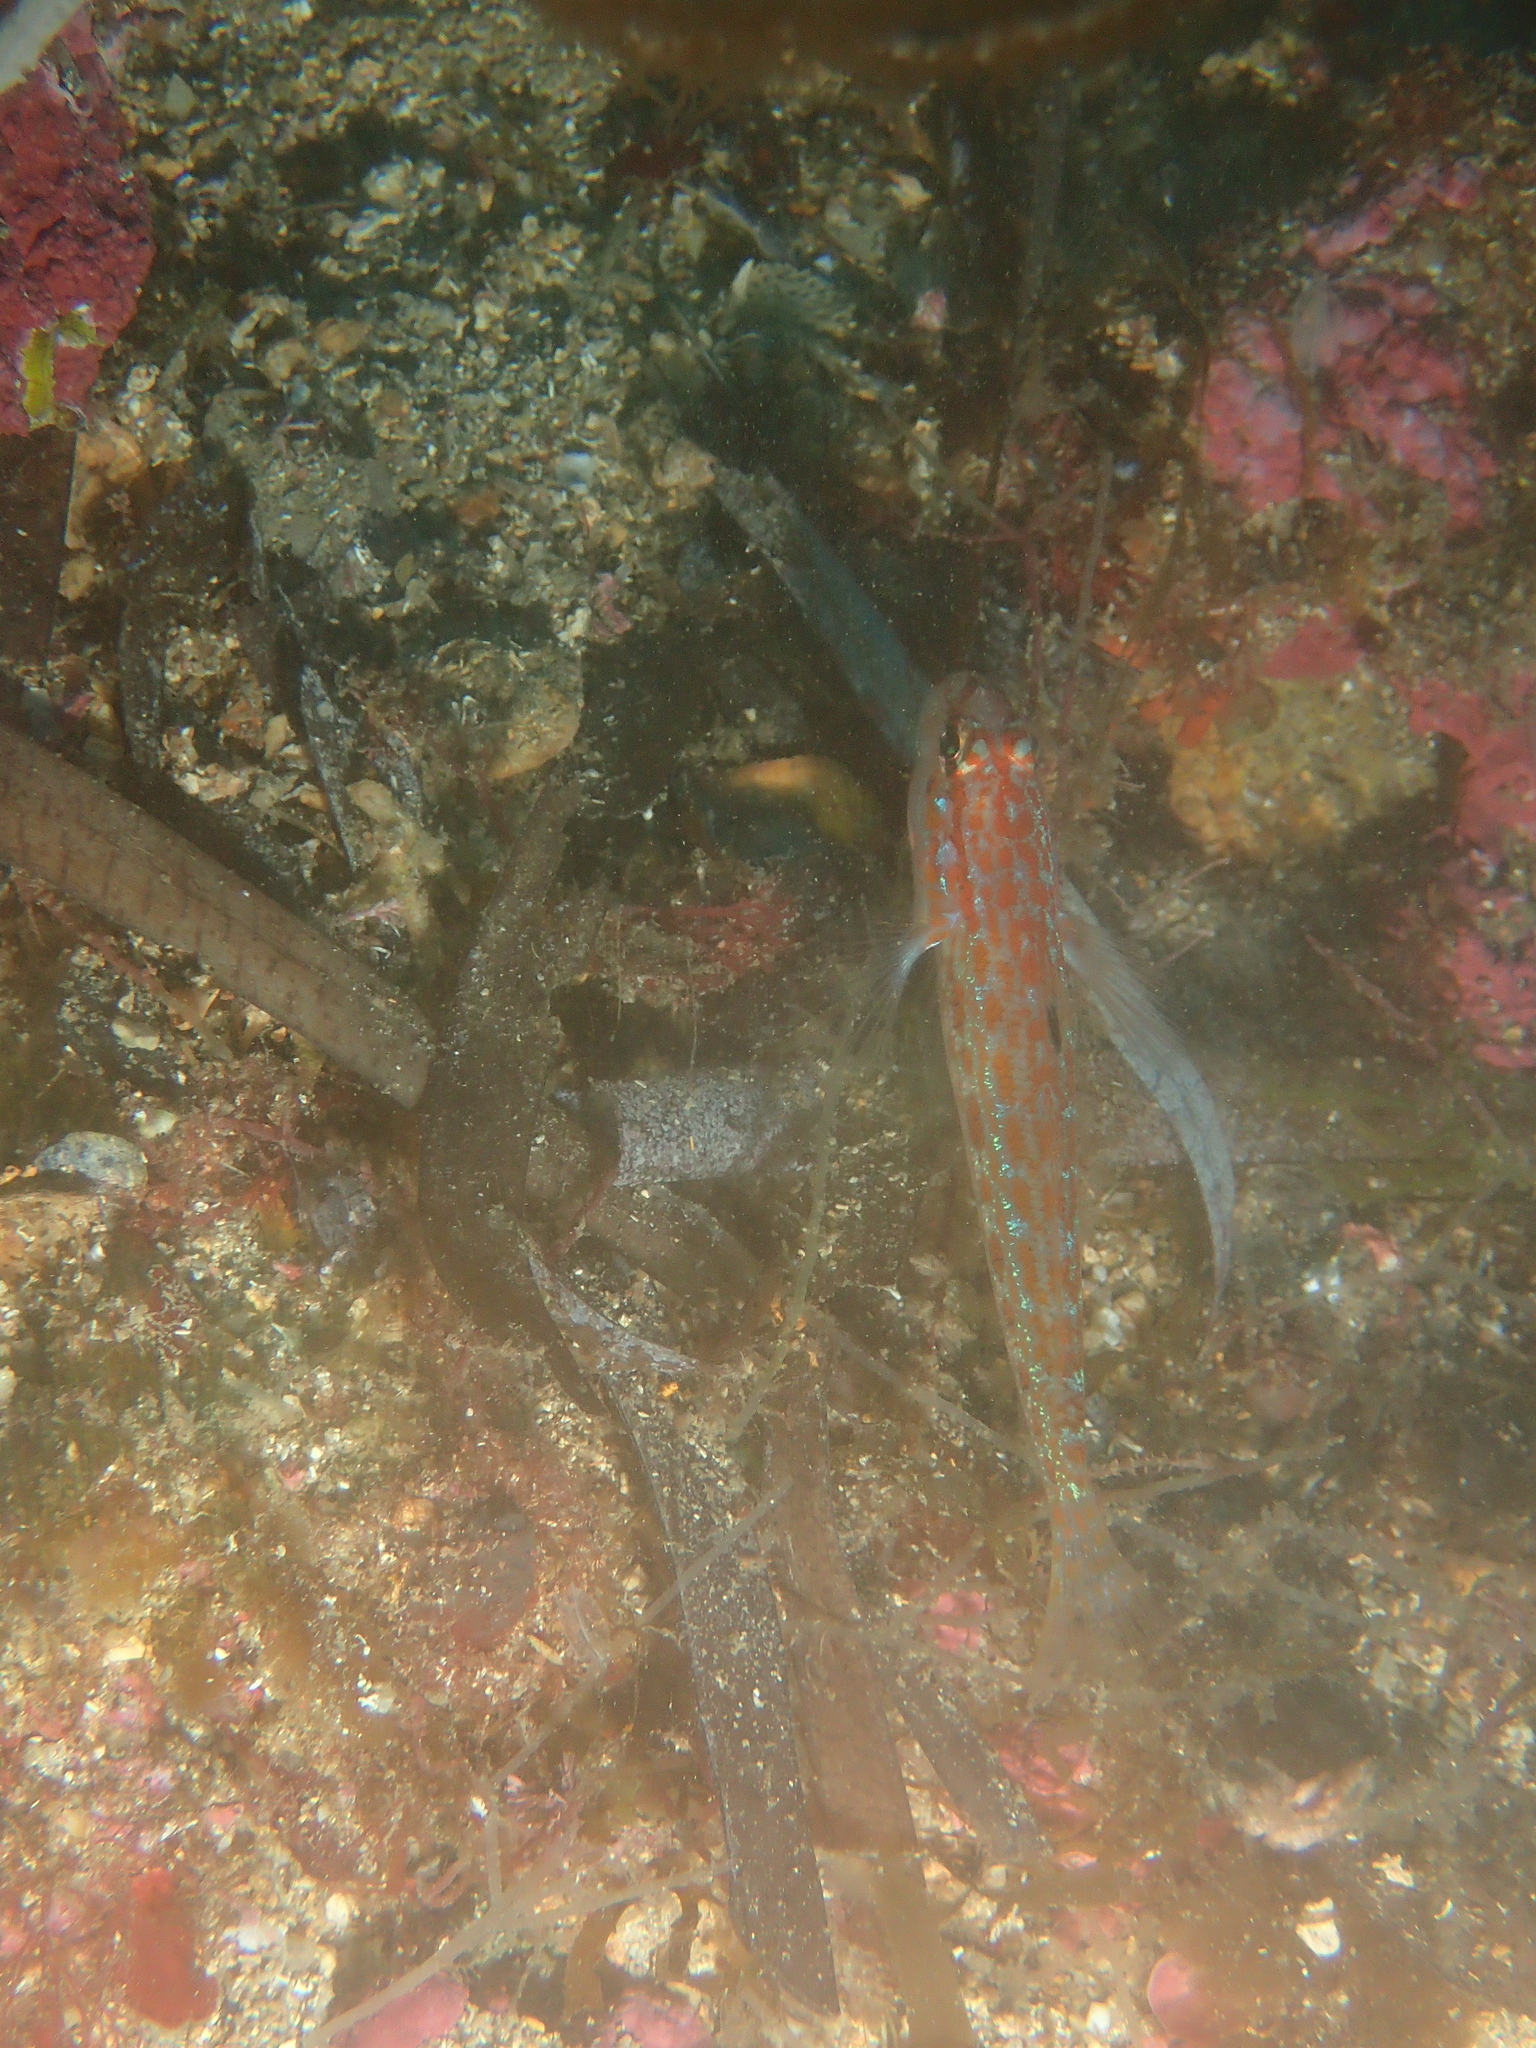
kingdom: Animalia
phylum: Chordata
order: Perciformes
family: Gobiidae
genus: Gobius
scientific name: Gobius kolombatovici
